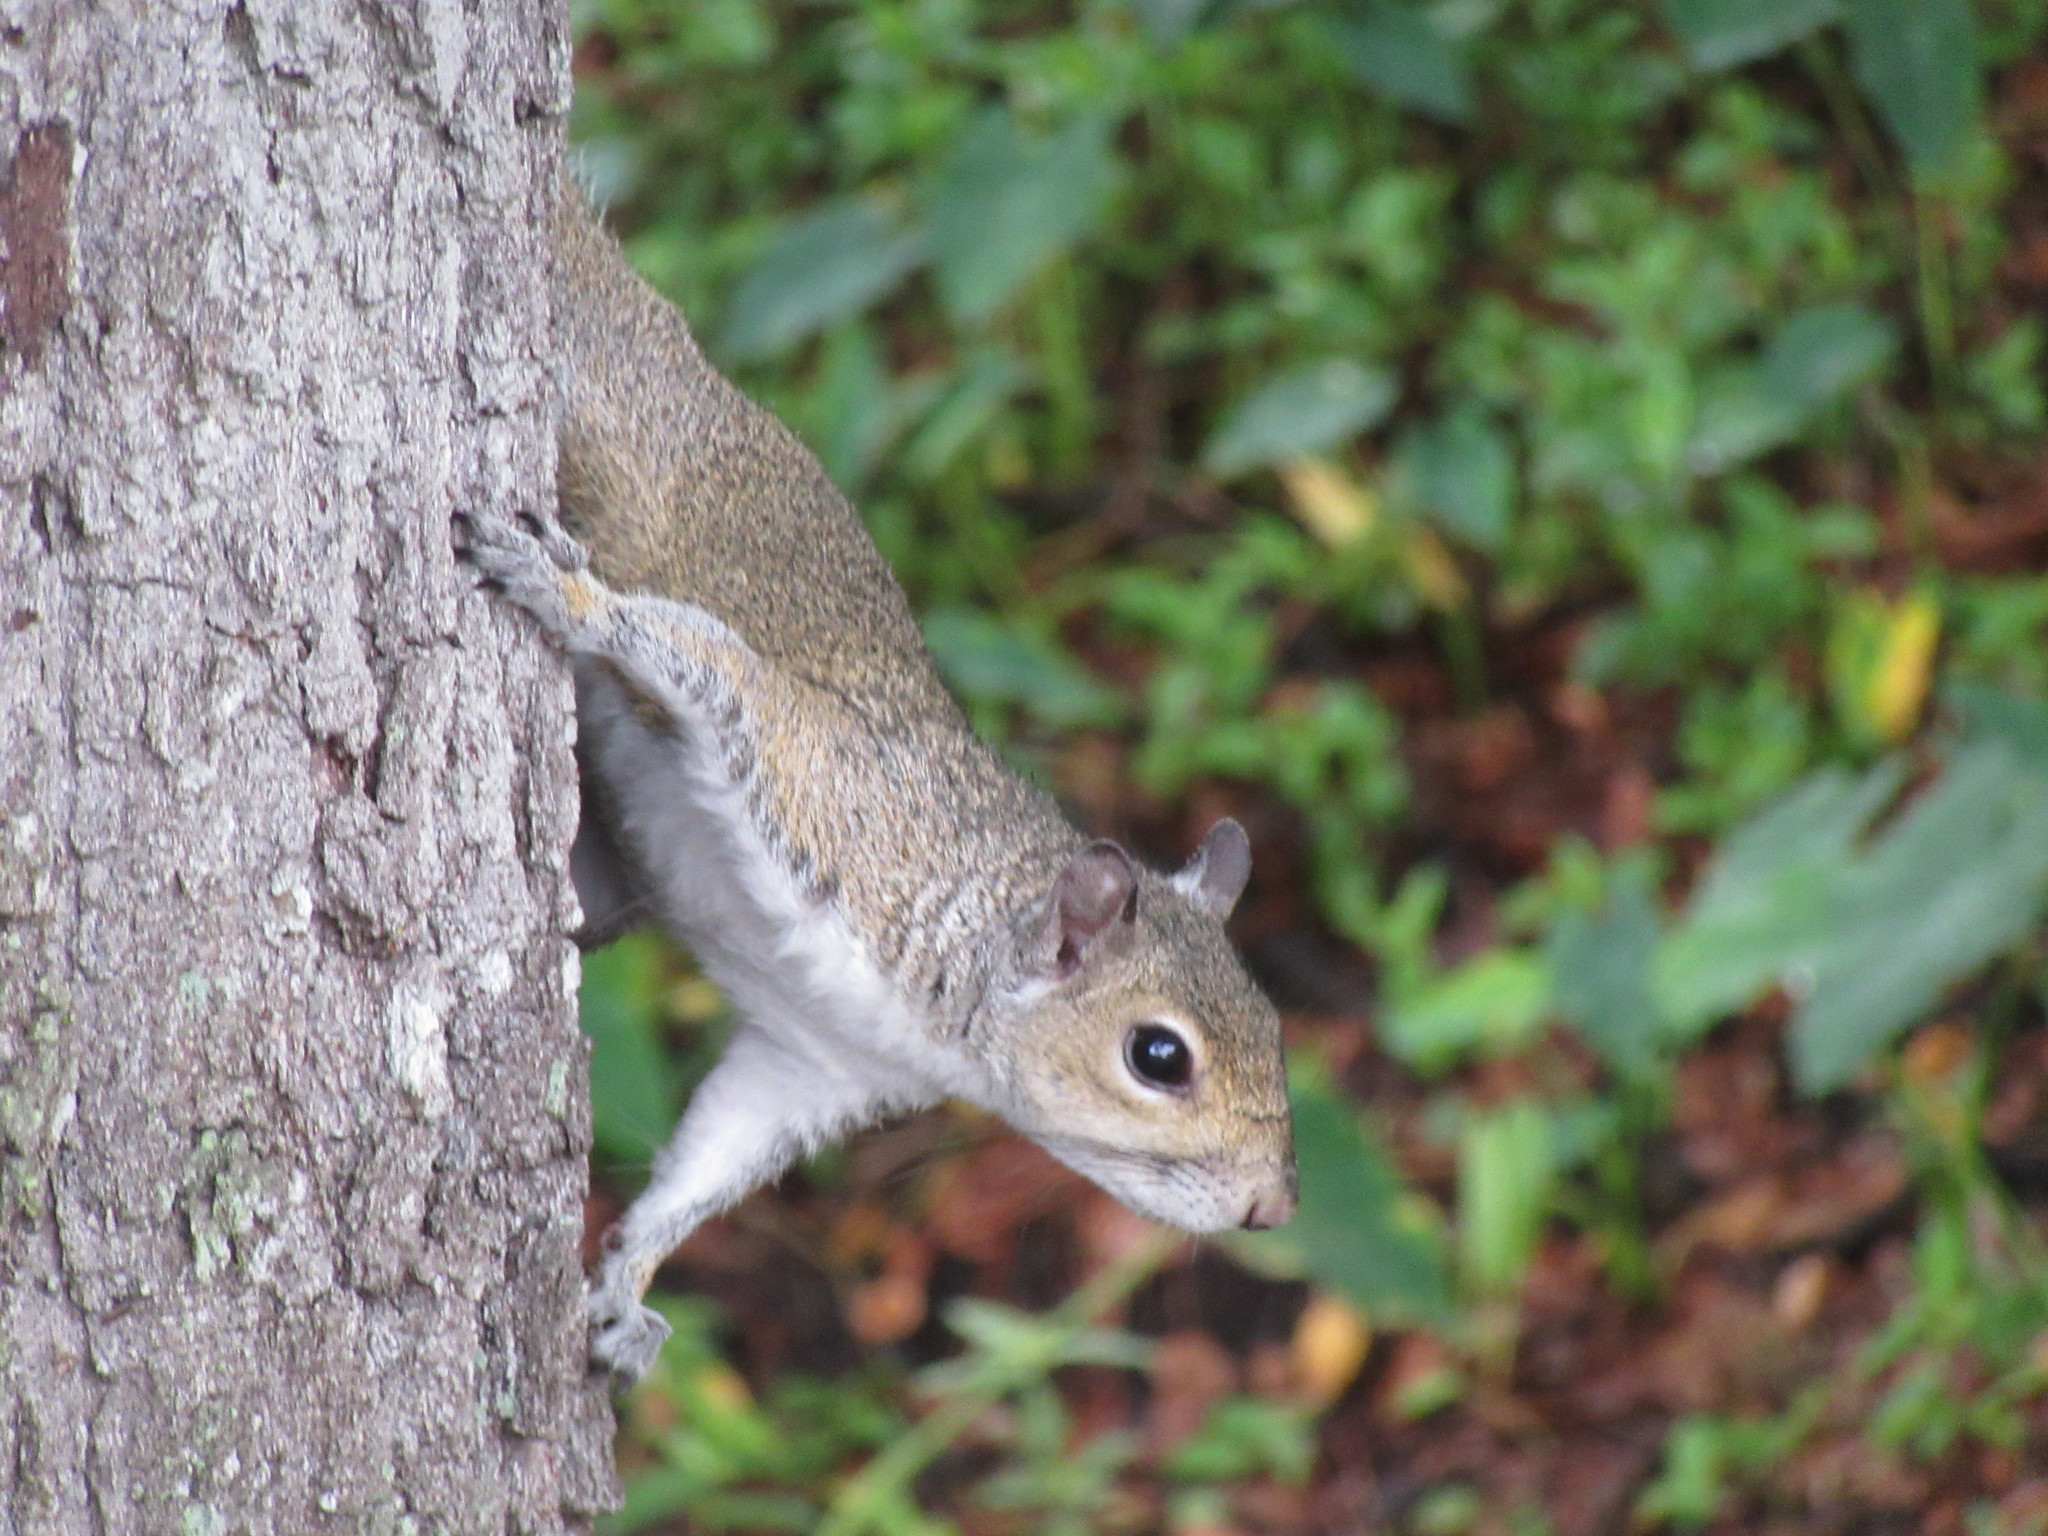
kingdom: Animalia
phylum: Chordata
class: Mammalia
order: Rodentia
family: Sciuridae
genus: Sciurus
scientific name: Sciurus carolinensis
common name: Eastern gray squirrel
